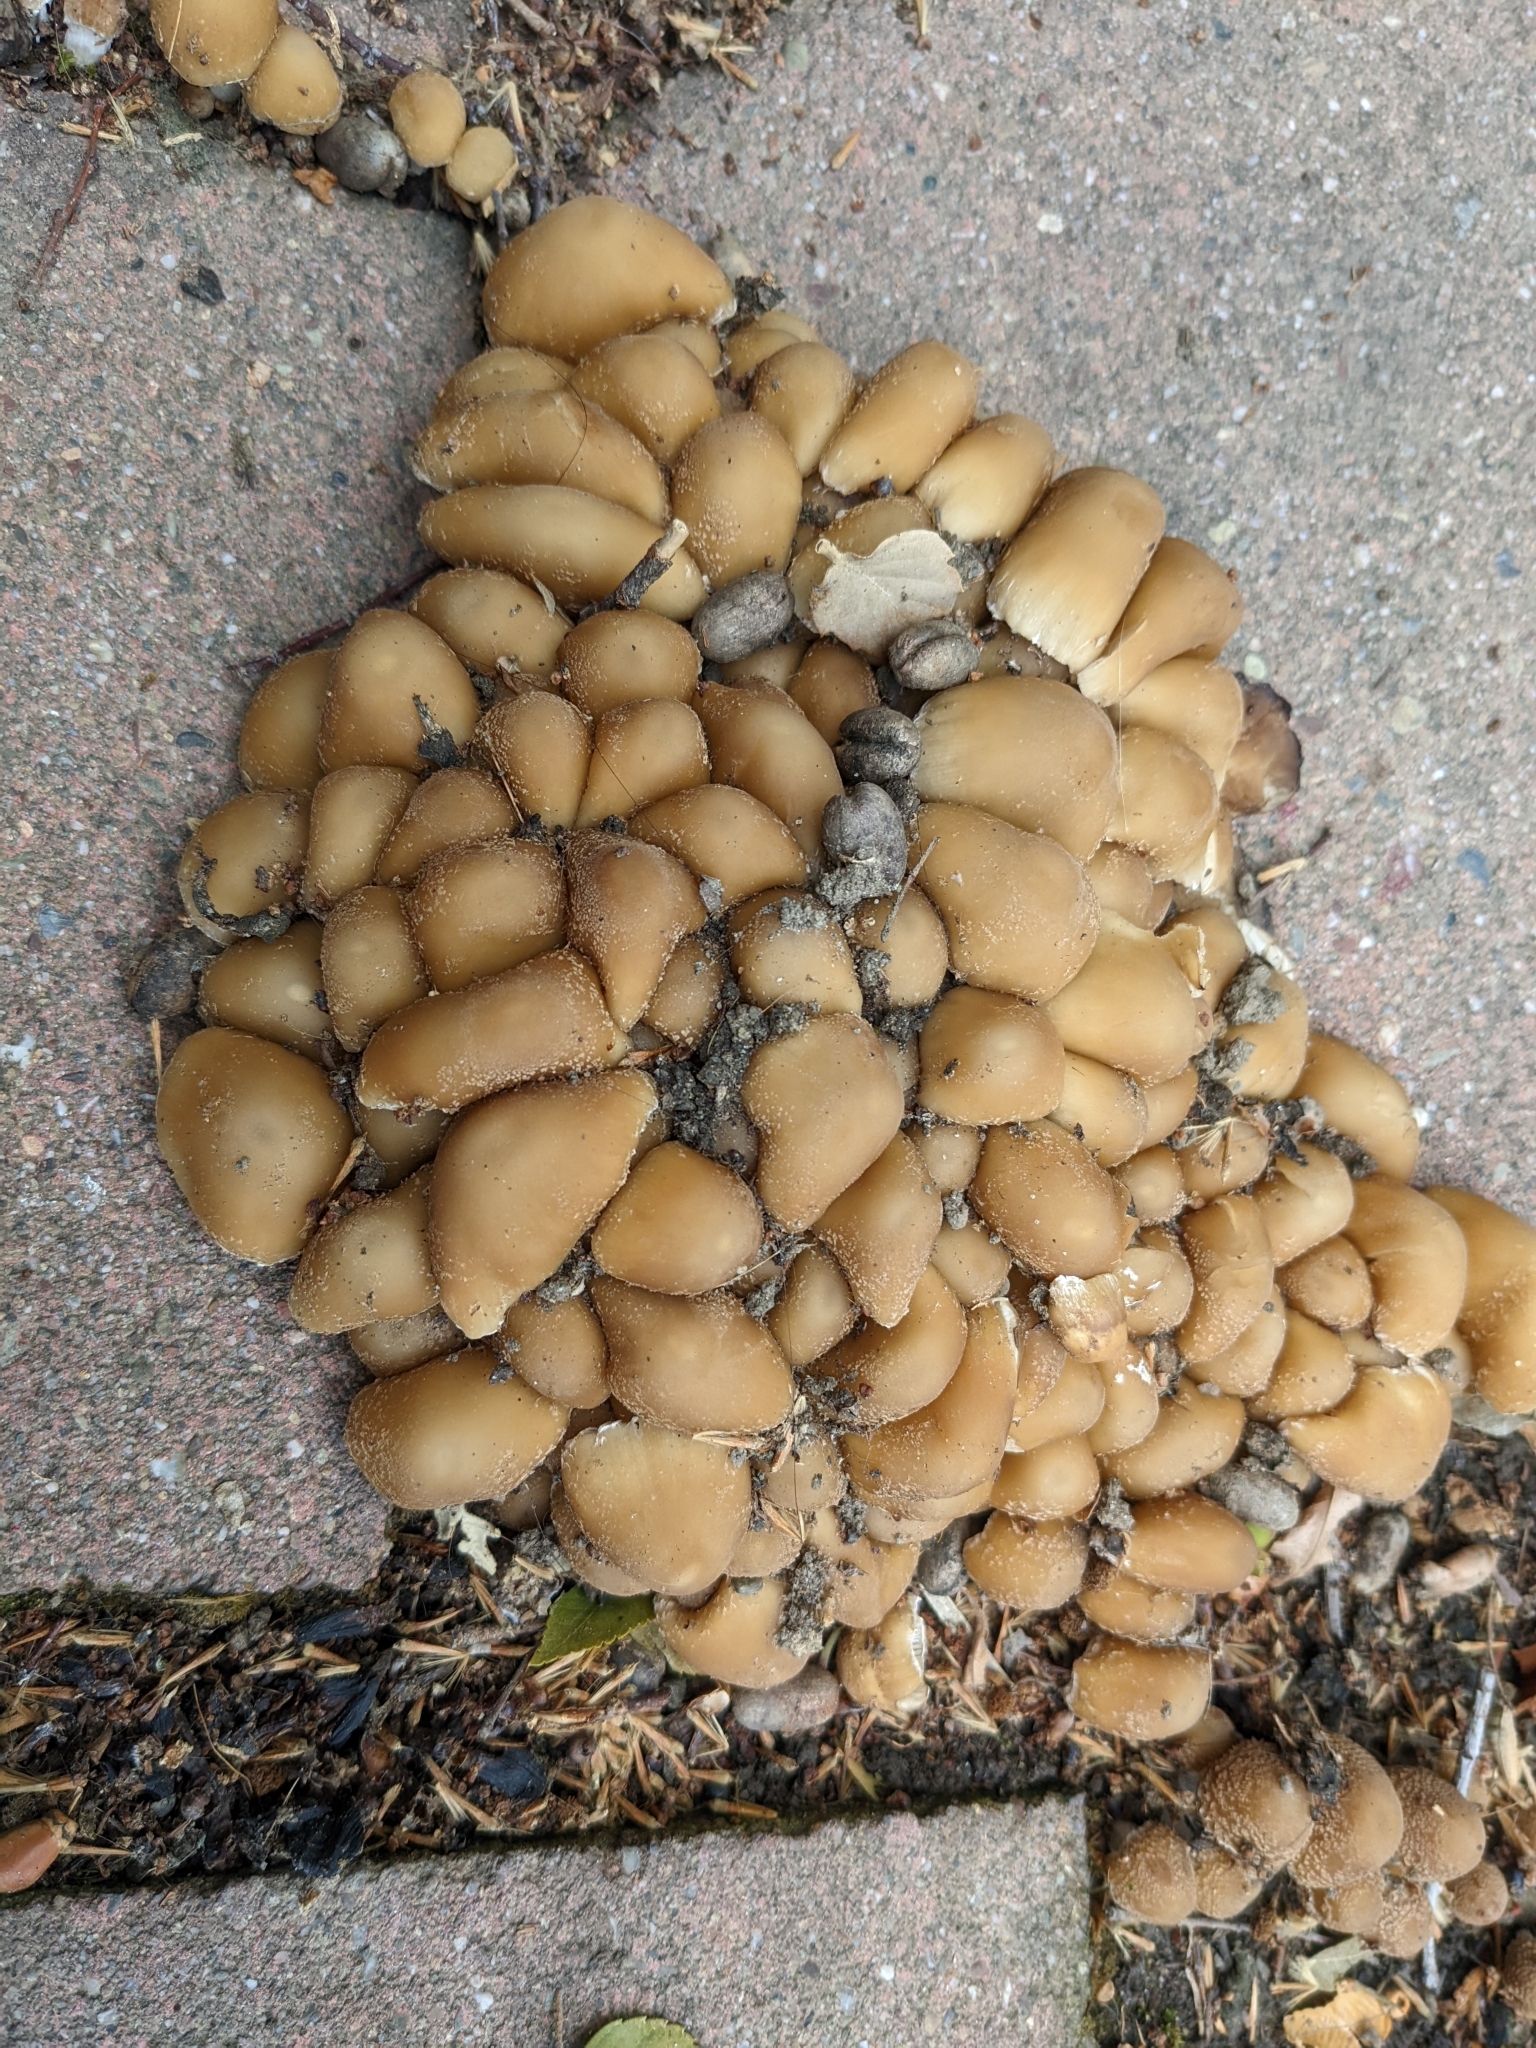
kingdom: Fungi
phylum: Basidiomycota
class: Agaricomycetes
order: Agaricales
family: Psathyrellaceae
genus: Candolleomyces
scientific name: Candolleomyces candolleanus
